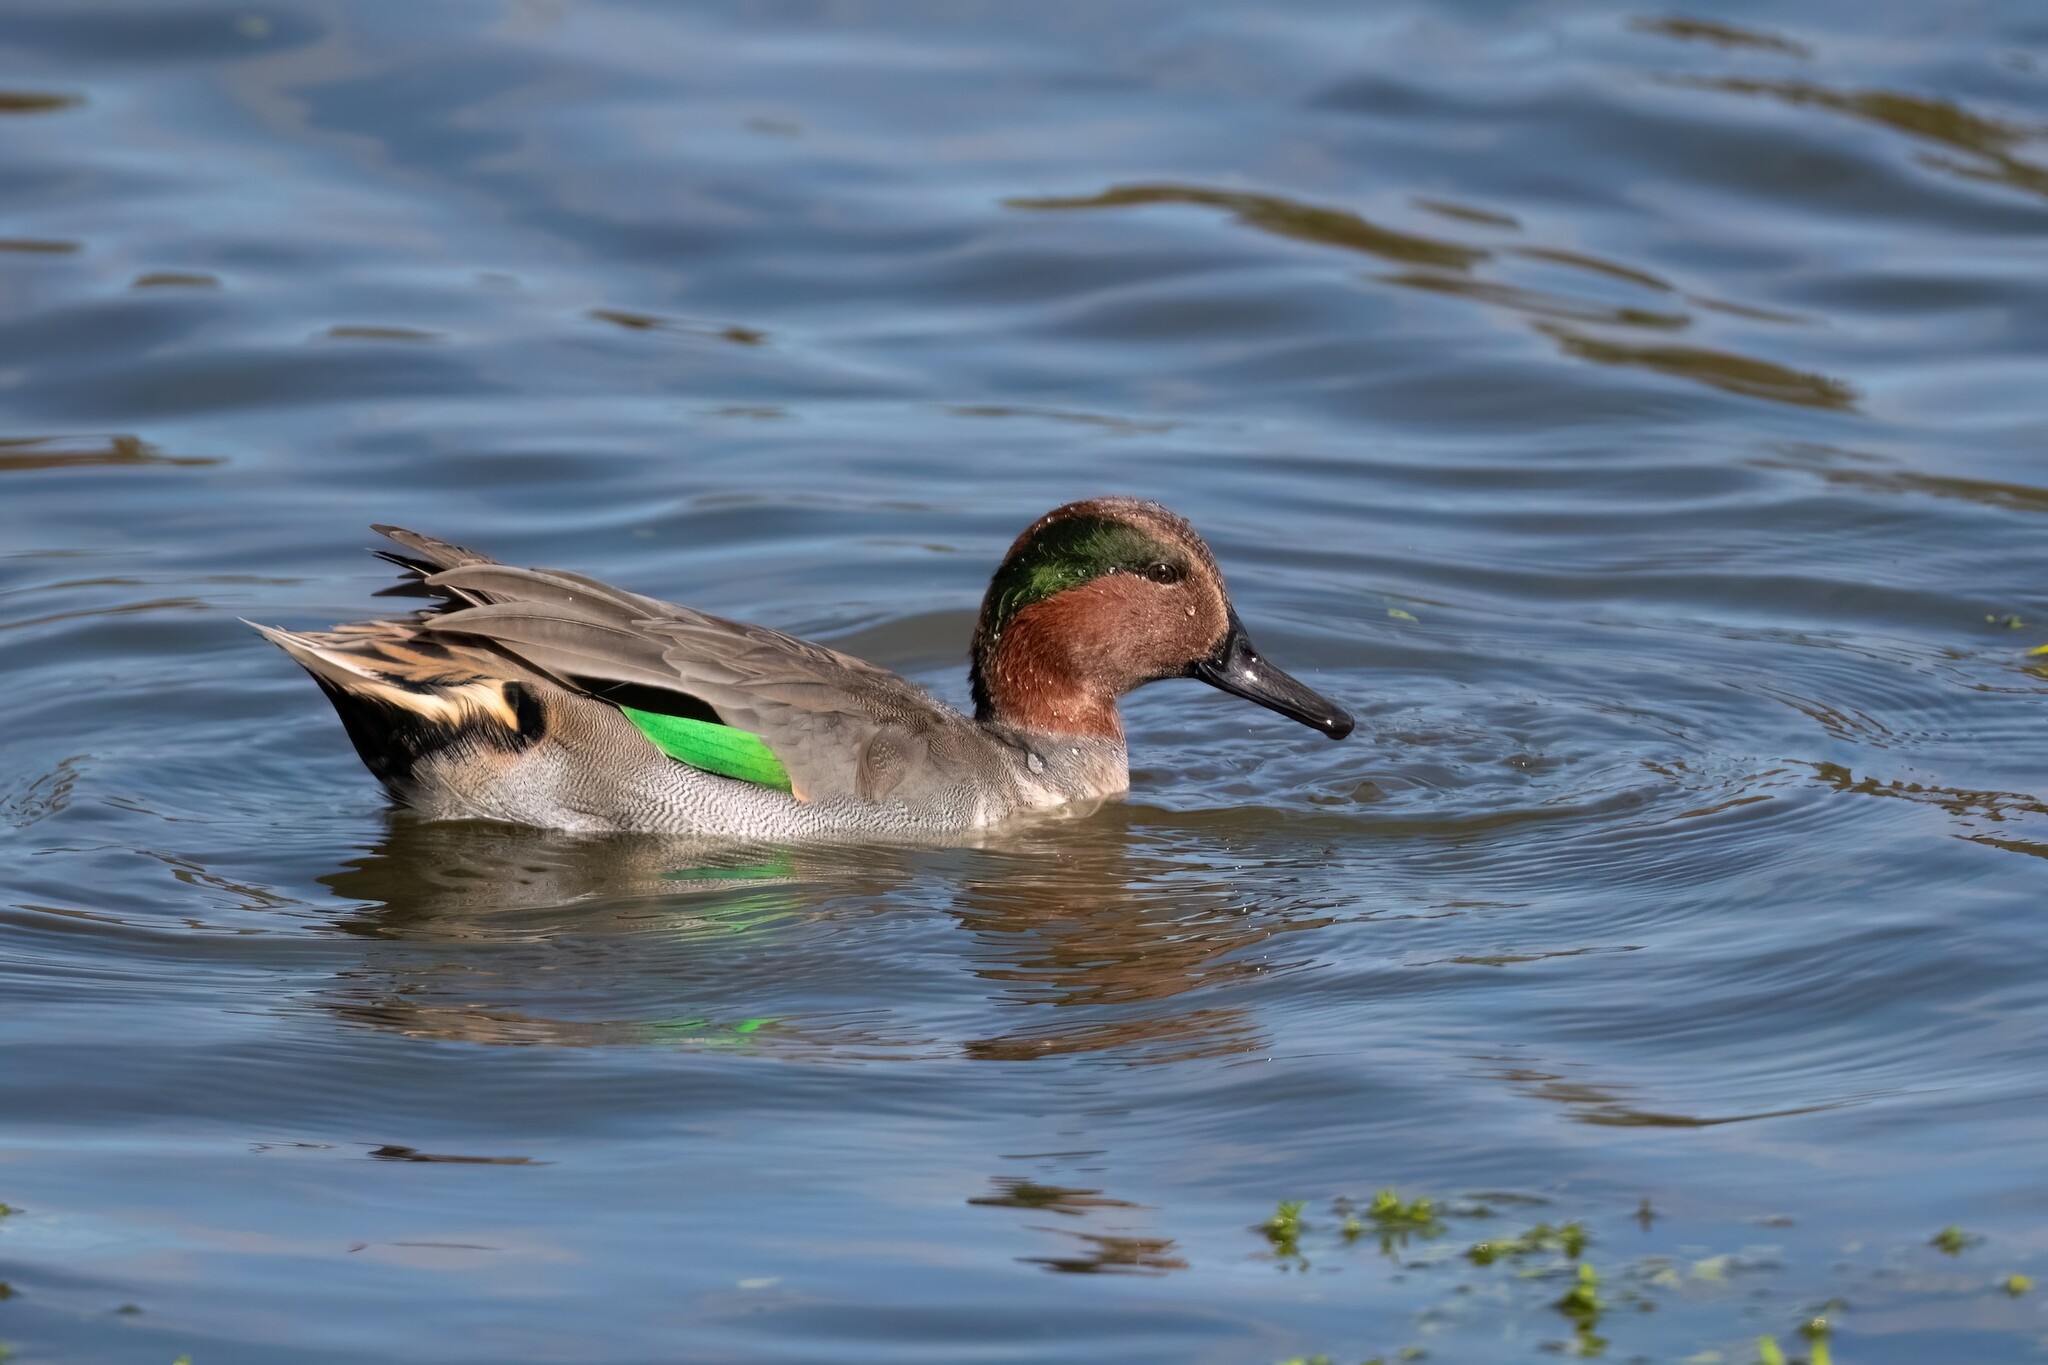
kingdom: Animalia
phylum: Chordata
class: Aves
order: Anseriformes
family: Anatidae
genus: Anas
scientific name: Anas crecca
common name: Eurasian teal
